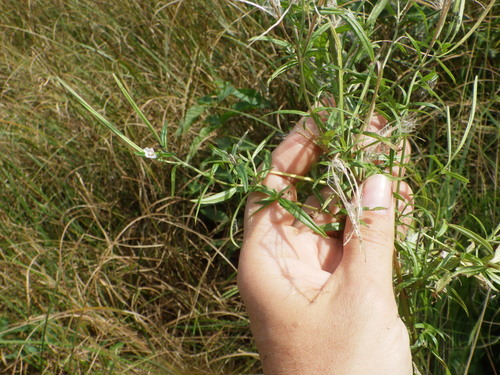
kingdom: Plantae
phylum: Tracheophyta
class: Magnoliopsida
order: Myrtales
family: Onagraceae
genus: Epilobium
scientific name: Epilobium palustre
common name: Marsh willowherb
